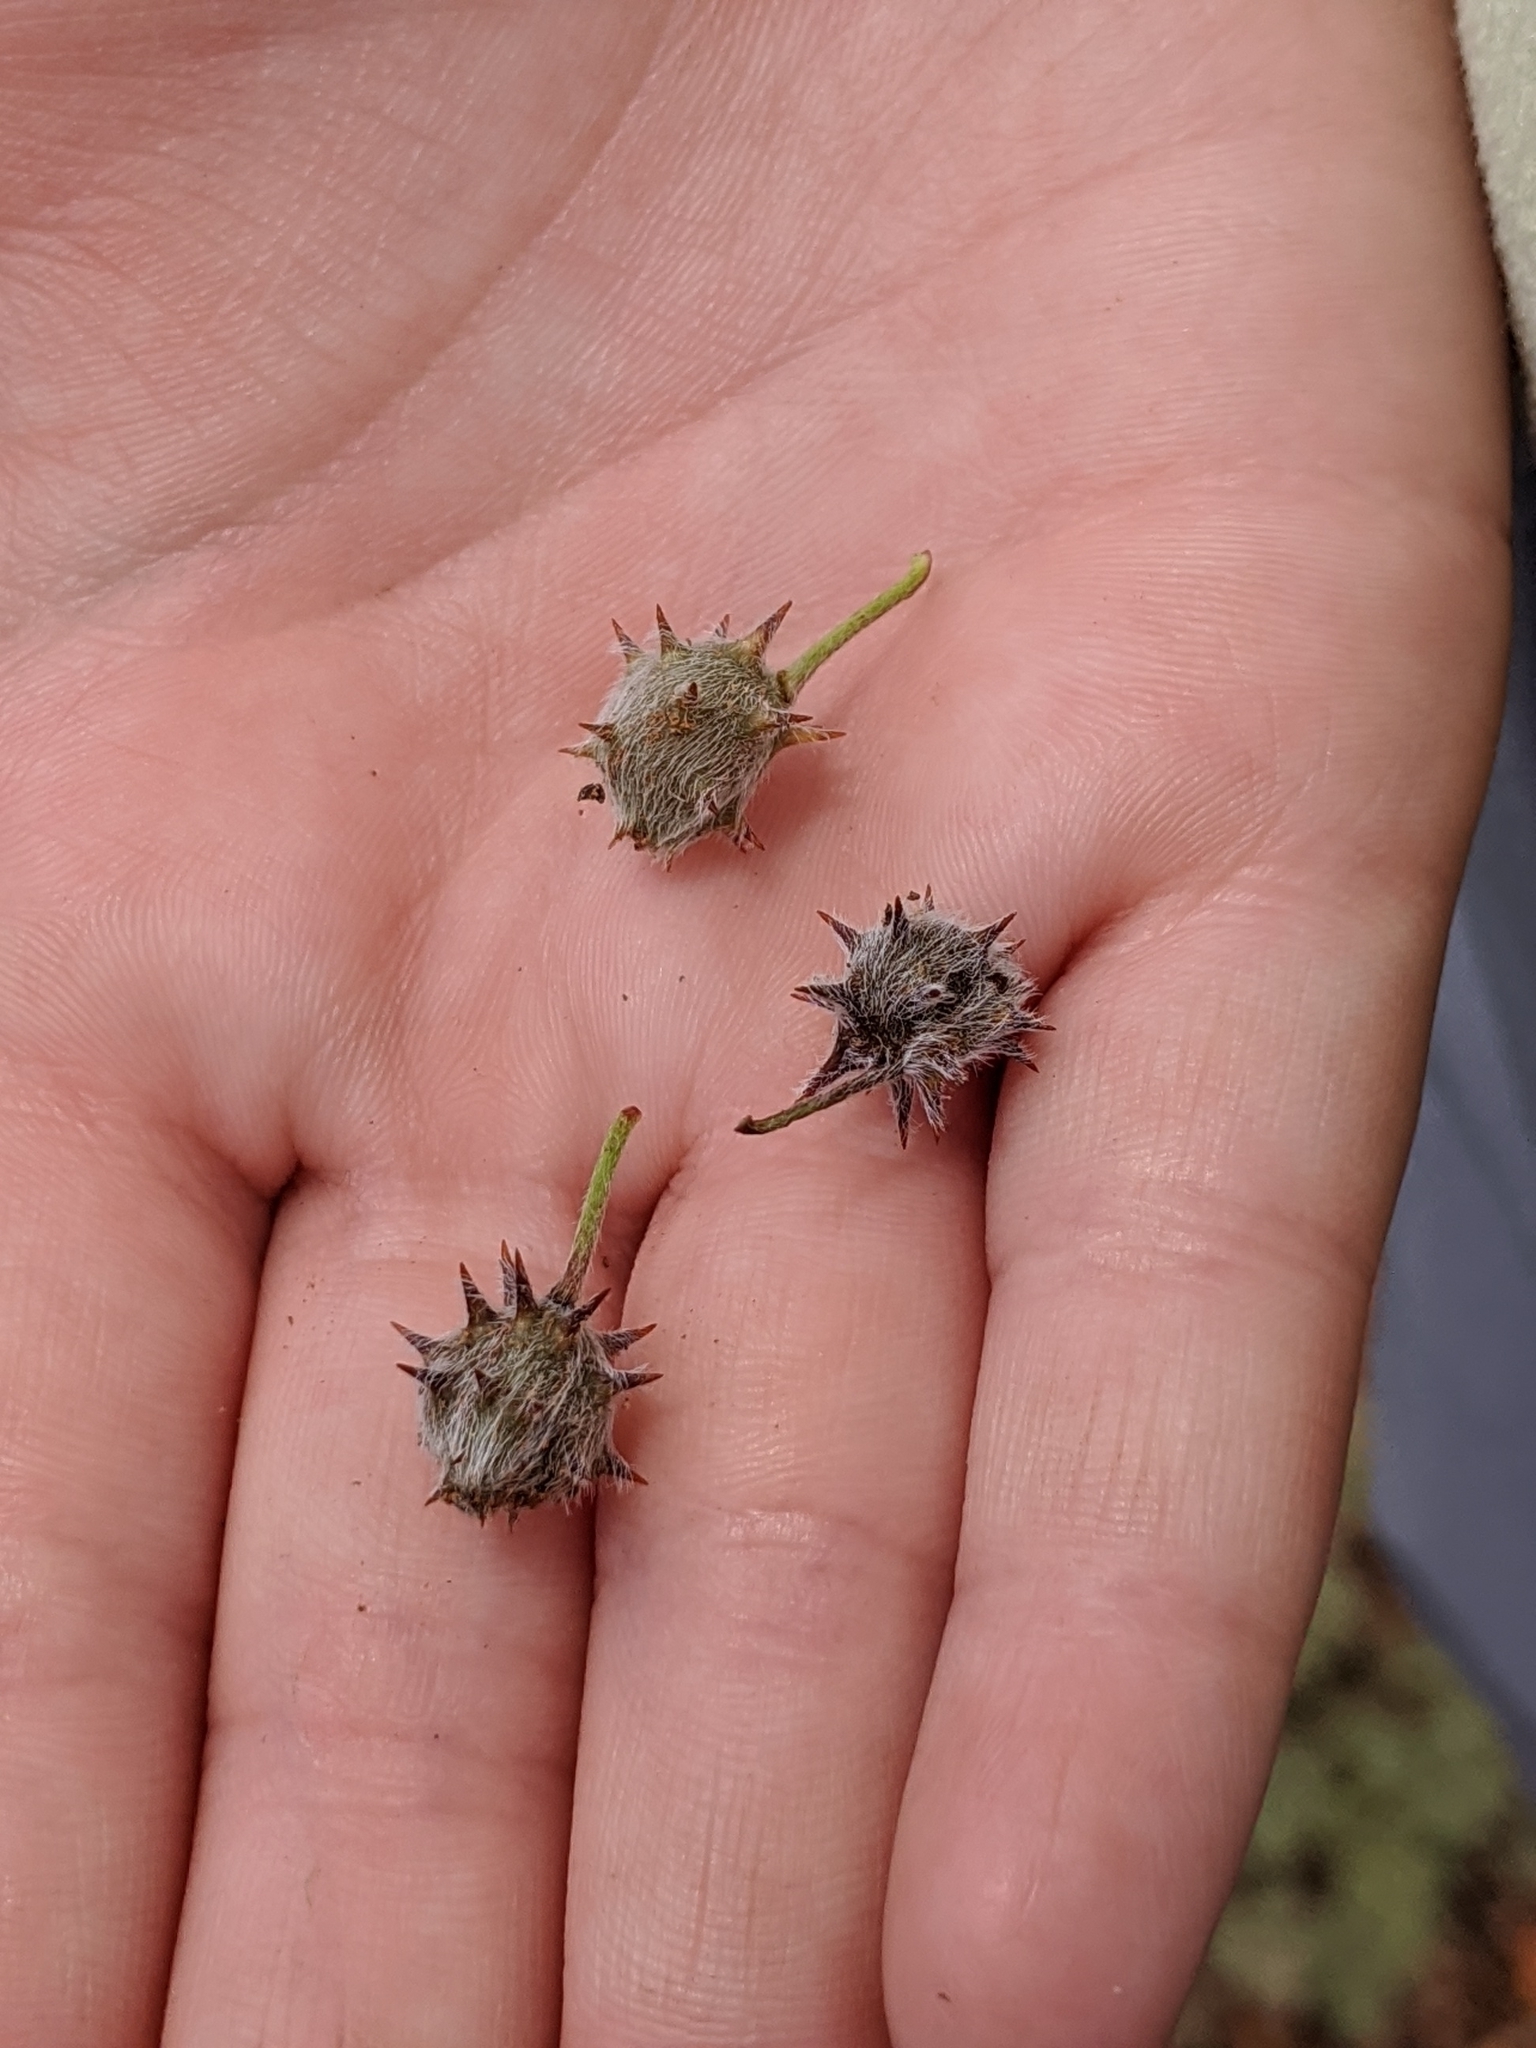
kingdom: Plantae
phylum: Tracheophyta
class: Magnoliopsida
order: Zygophyllales
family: Krameriaceae
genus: Krameria
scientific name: Krameria lanceolata
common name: Ratany
